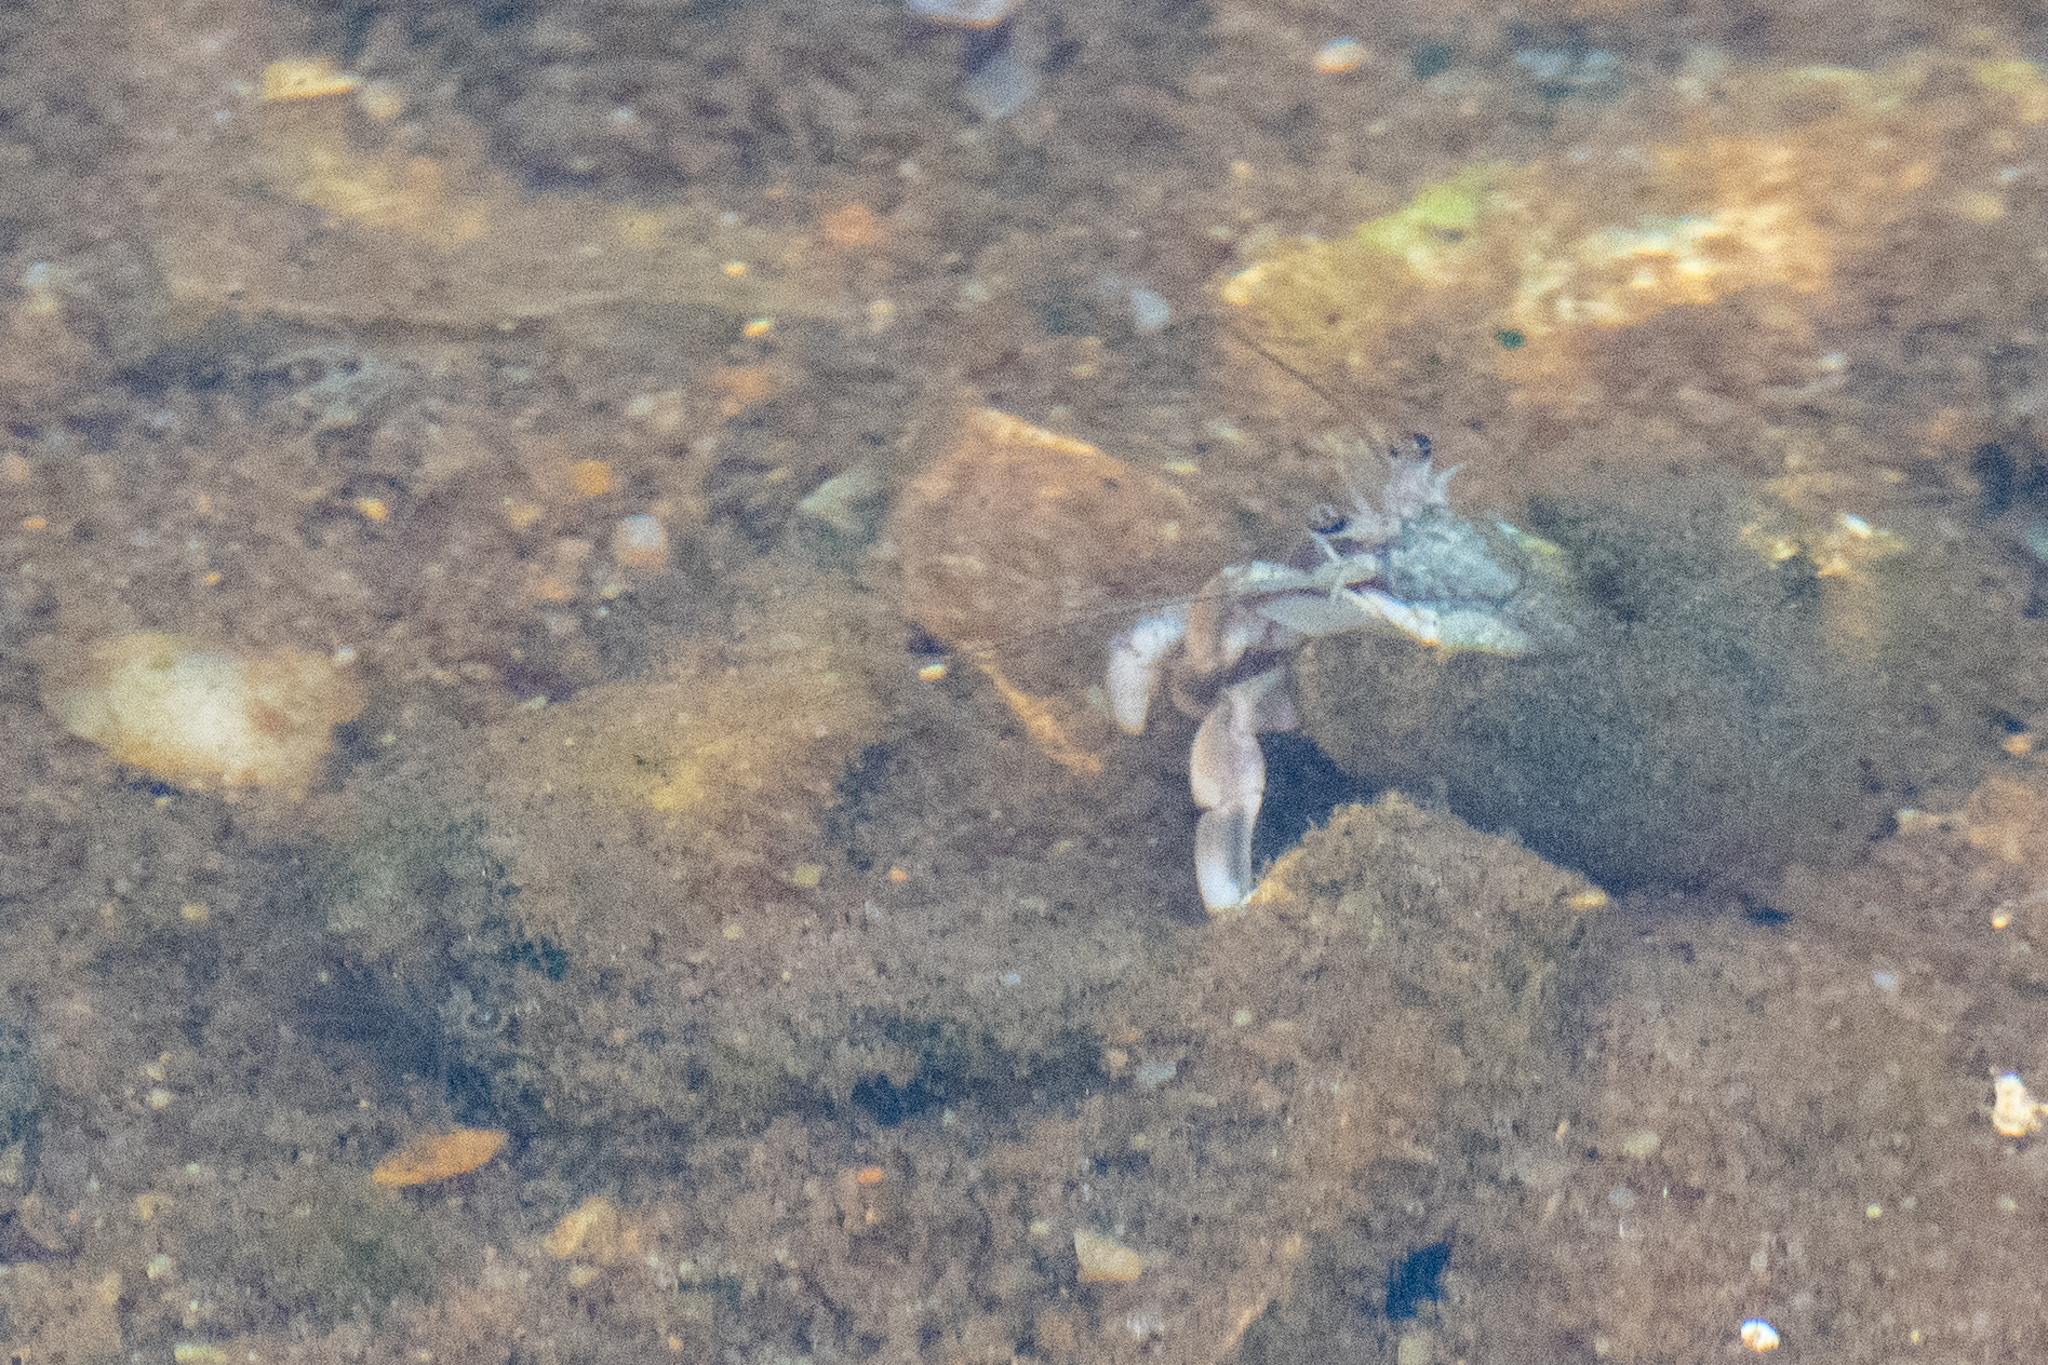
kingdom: Animalia
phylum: Arthropoda
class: Malacostraca
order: Decapoda
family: Paguridae
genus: Pagurus
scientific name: Pagurus longicarpus
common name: Long-armed hermit crab
